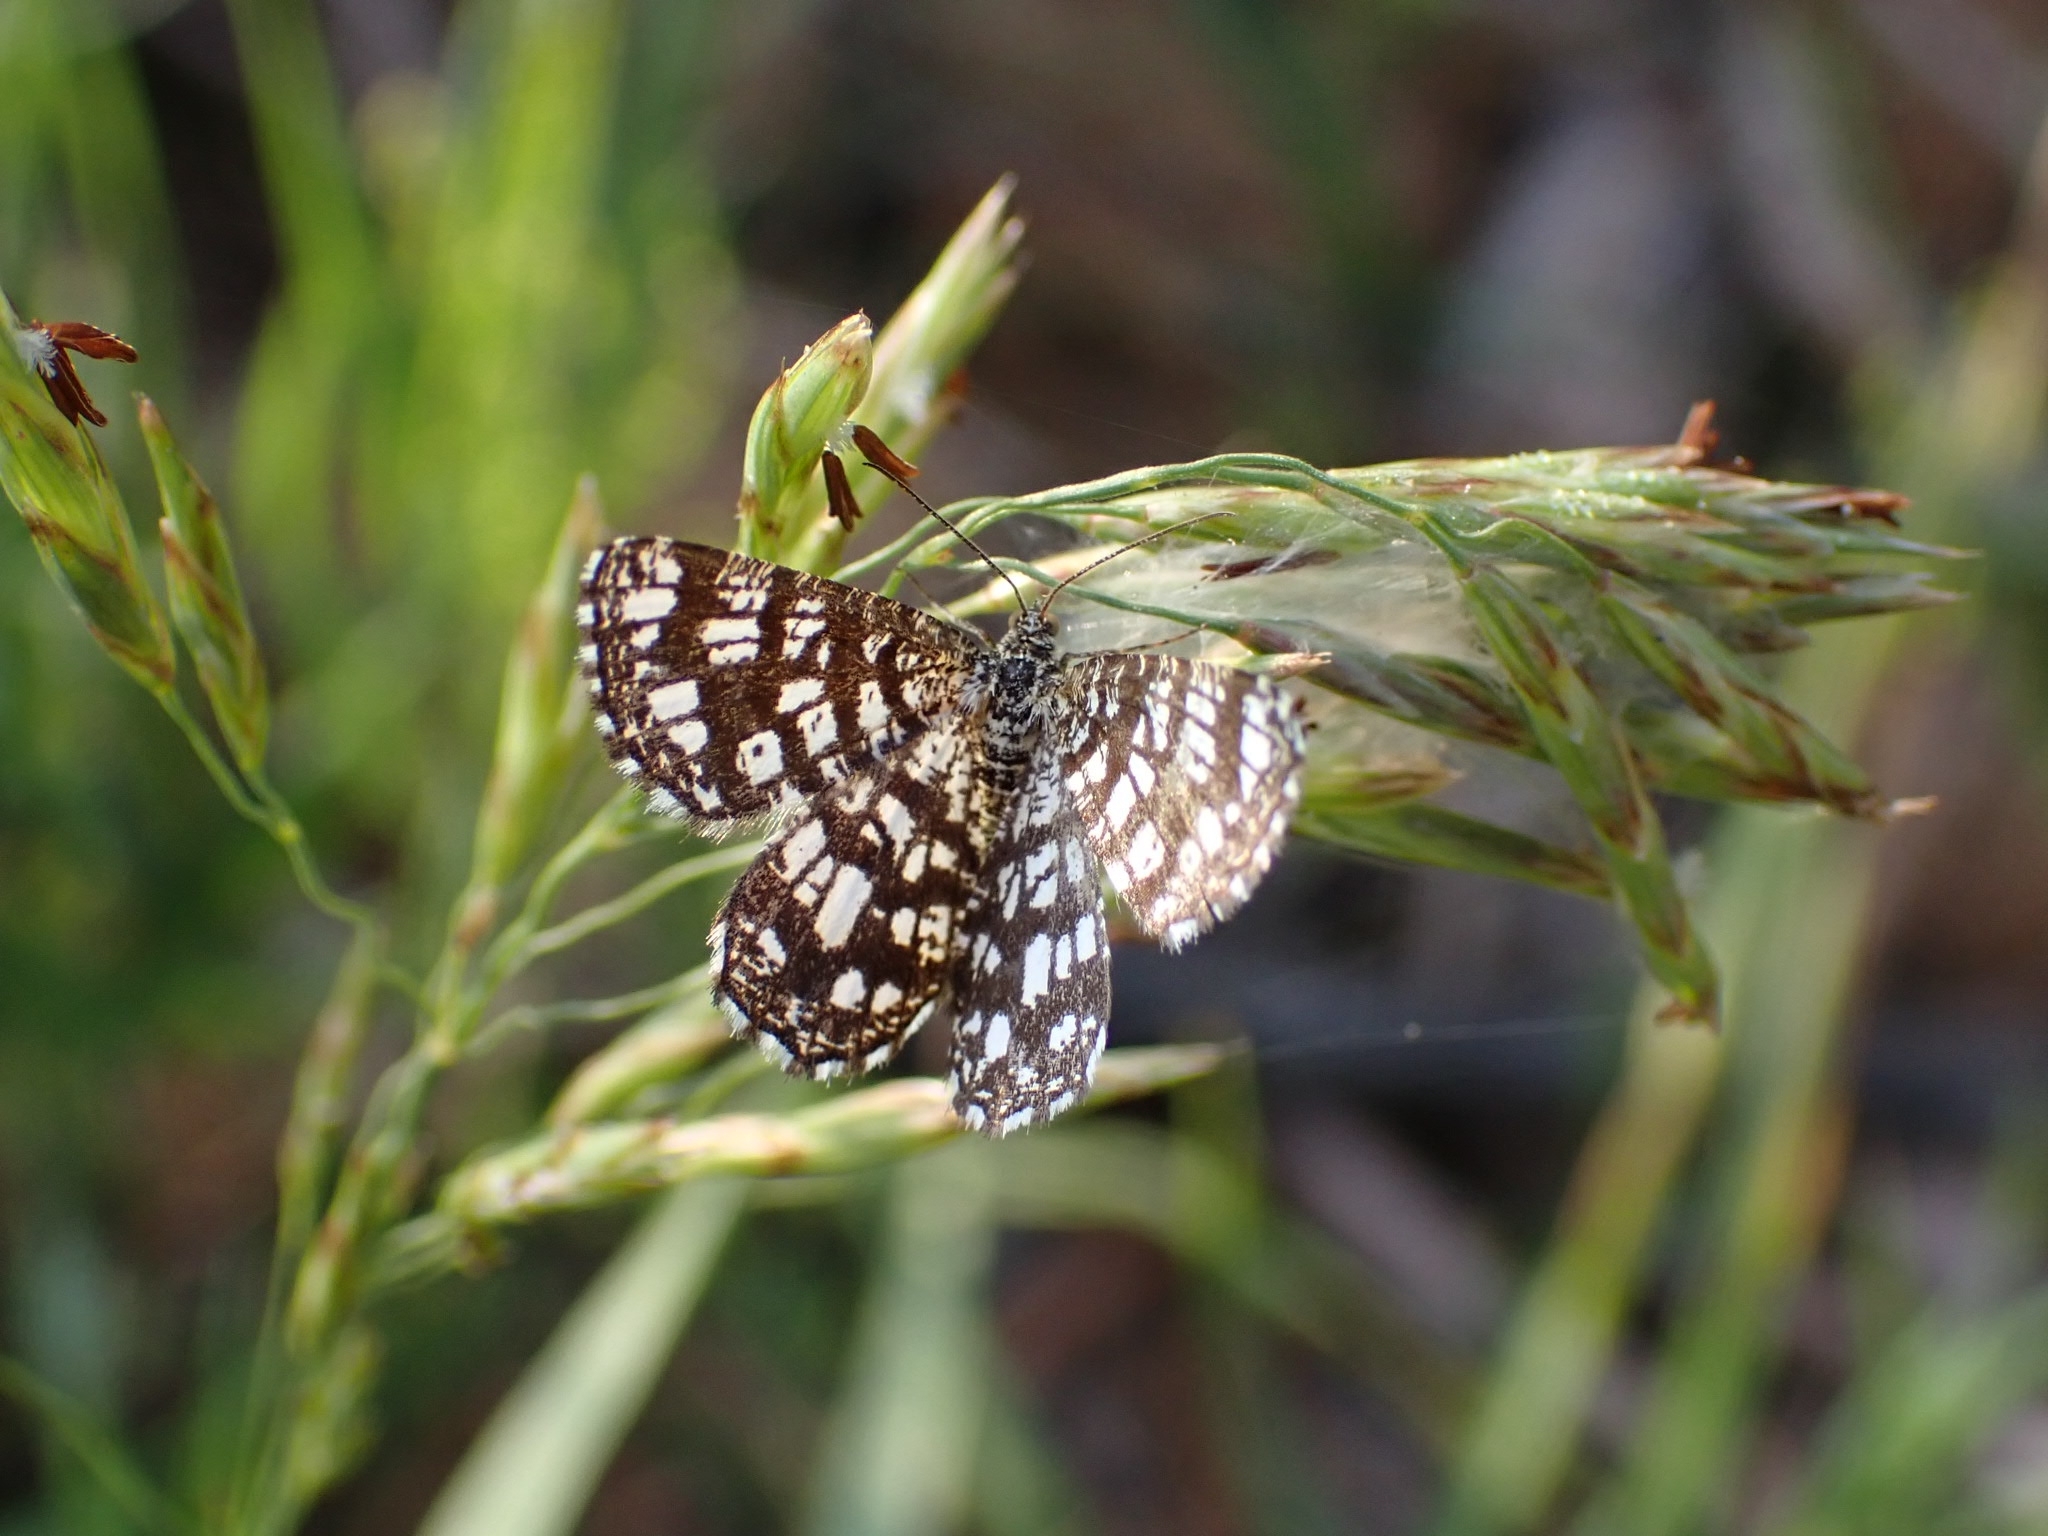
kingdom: Animalia
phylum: Arthropoda
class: Insecta
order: Lepidoptera
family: Geometridae
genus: Chiasmia
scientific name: Chiasmia clathrata
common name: Latticed heath
